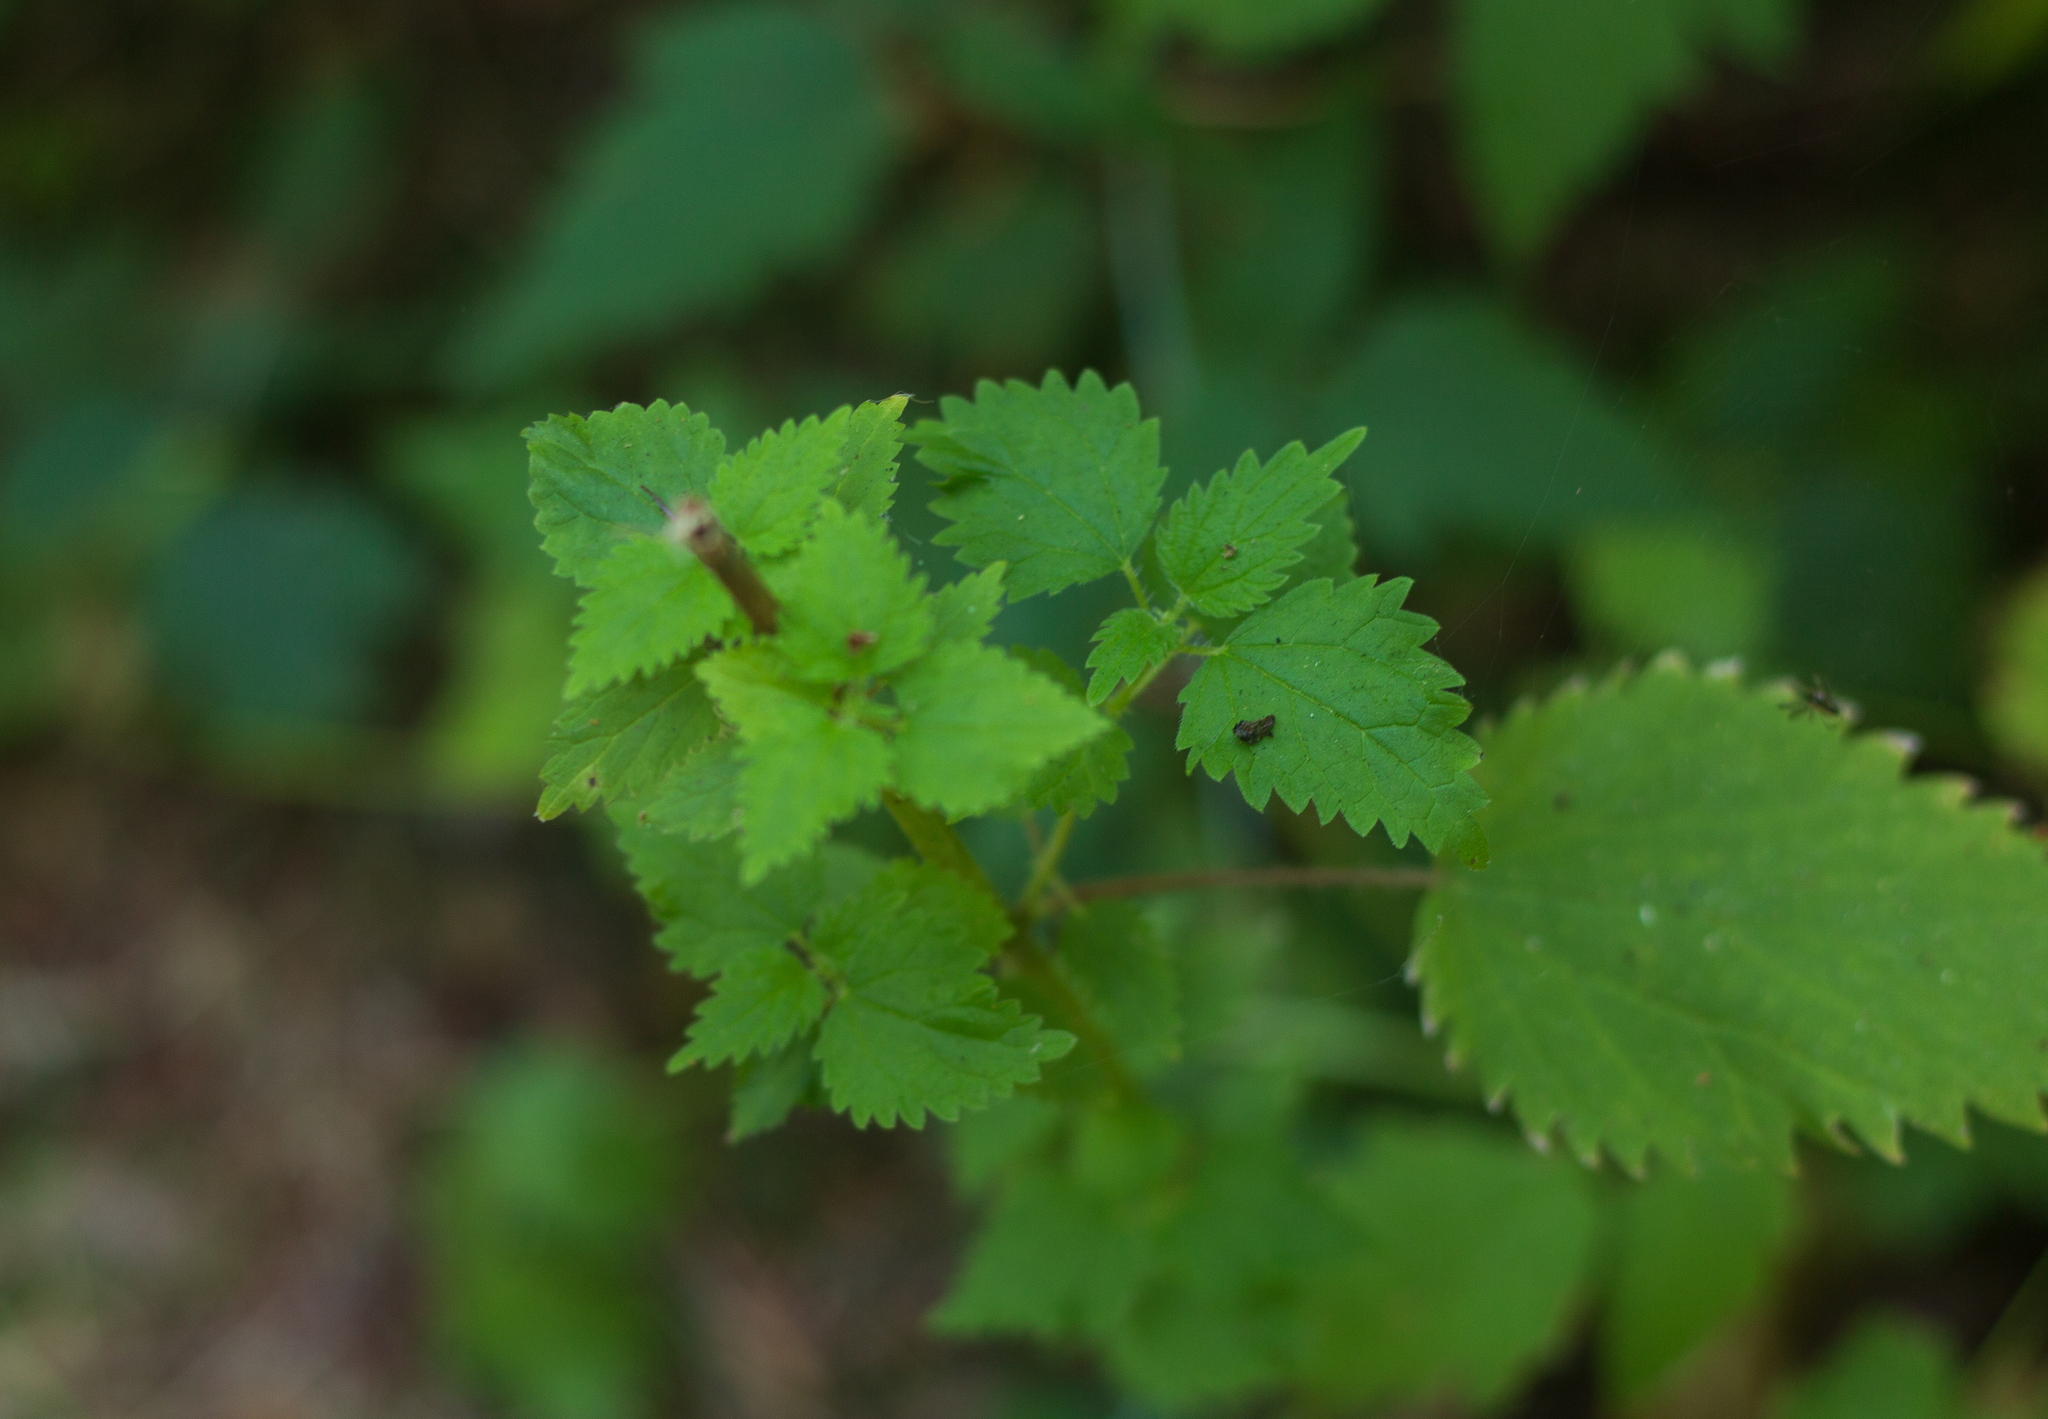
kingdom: Plantae
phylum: Tracheophyta
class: Magnoliopsida
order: Rosales
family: Urticaceae
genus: Urtica
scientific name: Urtica gracilis
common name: Slender stinging nettle
